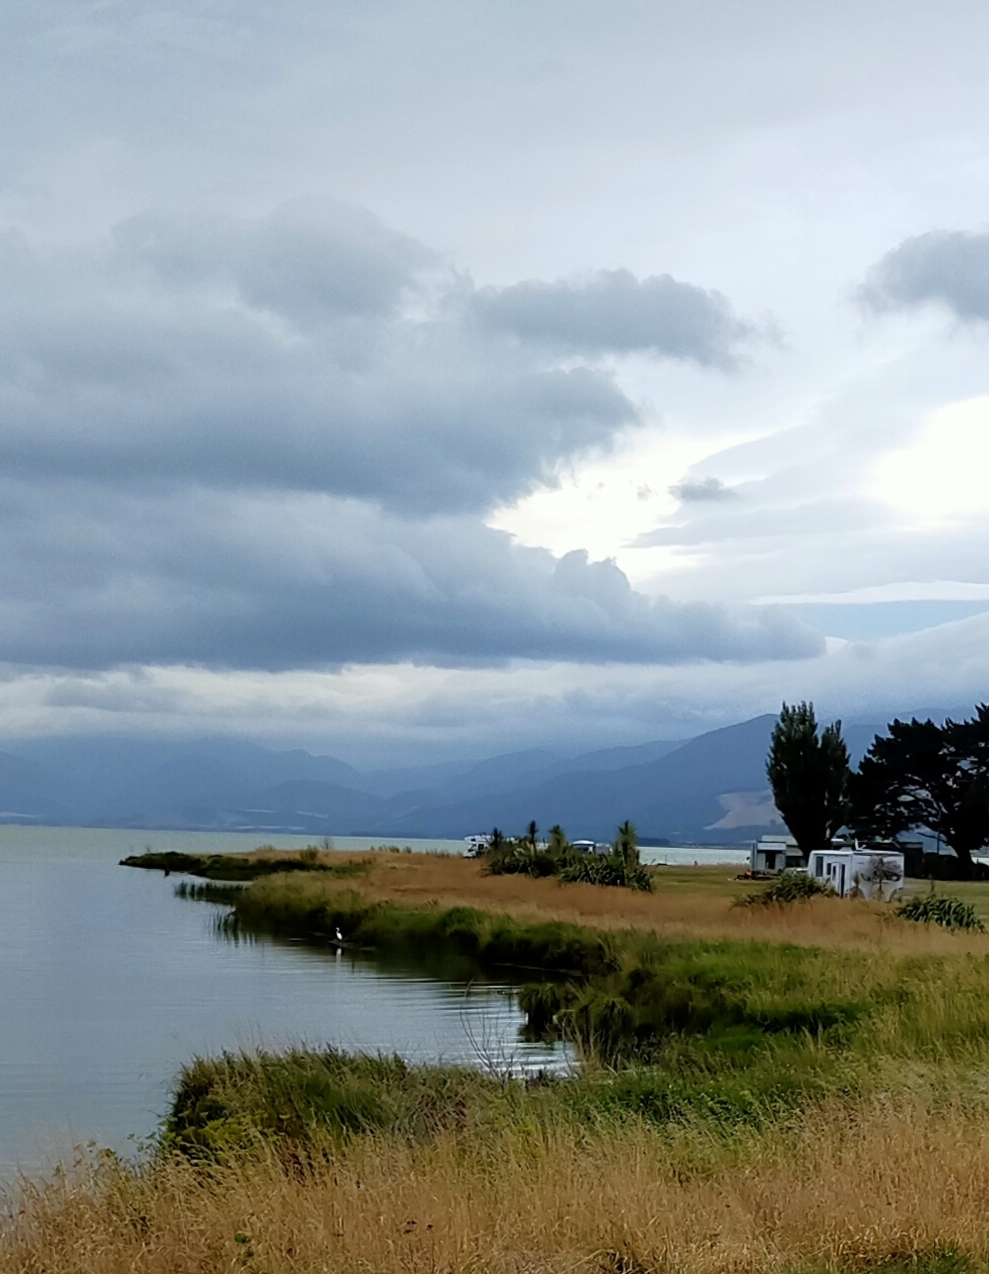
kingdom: Animalia
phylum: Chordata
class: Aves
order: Pelecaniformes
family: Ardeidae
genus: Ardea
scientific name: Ardea modesta
